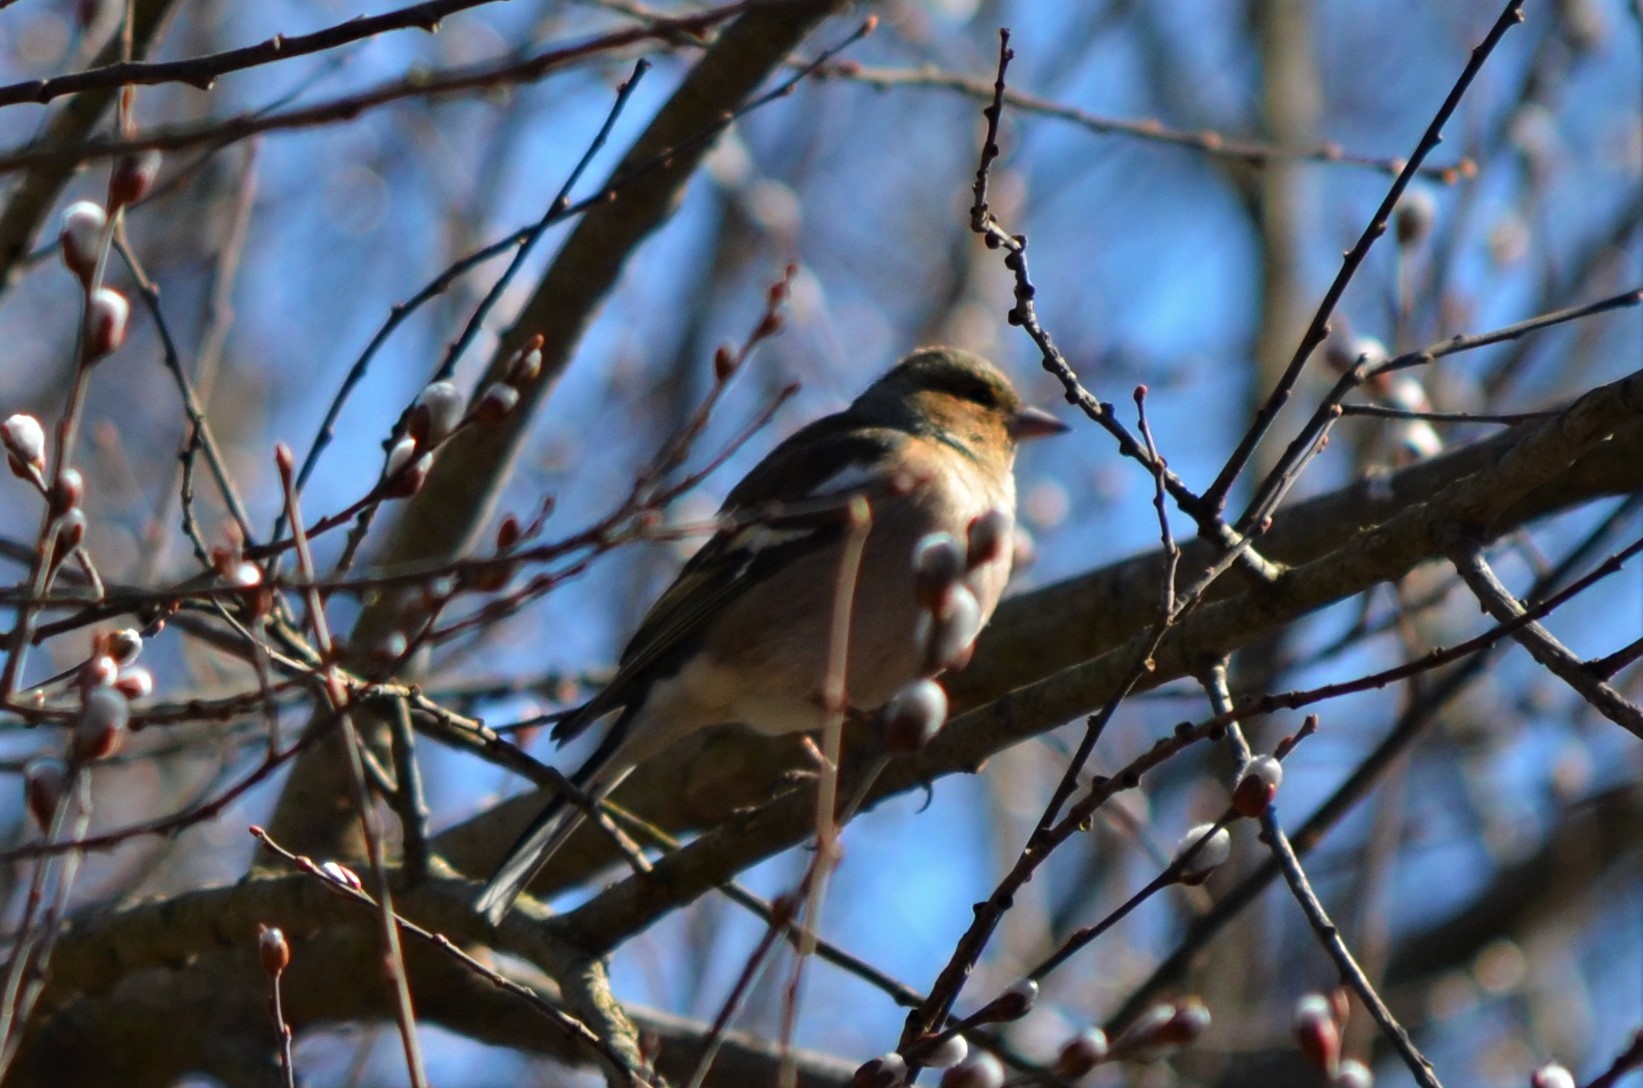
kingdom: Animalia
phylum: Chordata
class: Aves
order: Passeriformes
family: Fringillidae
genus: Fringilla
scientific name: Fringilla coelebs
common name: Common chaffinch
